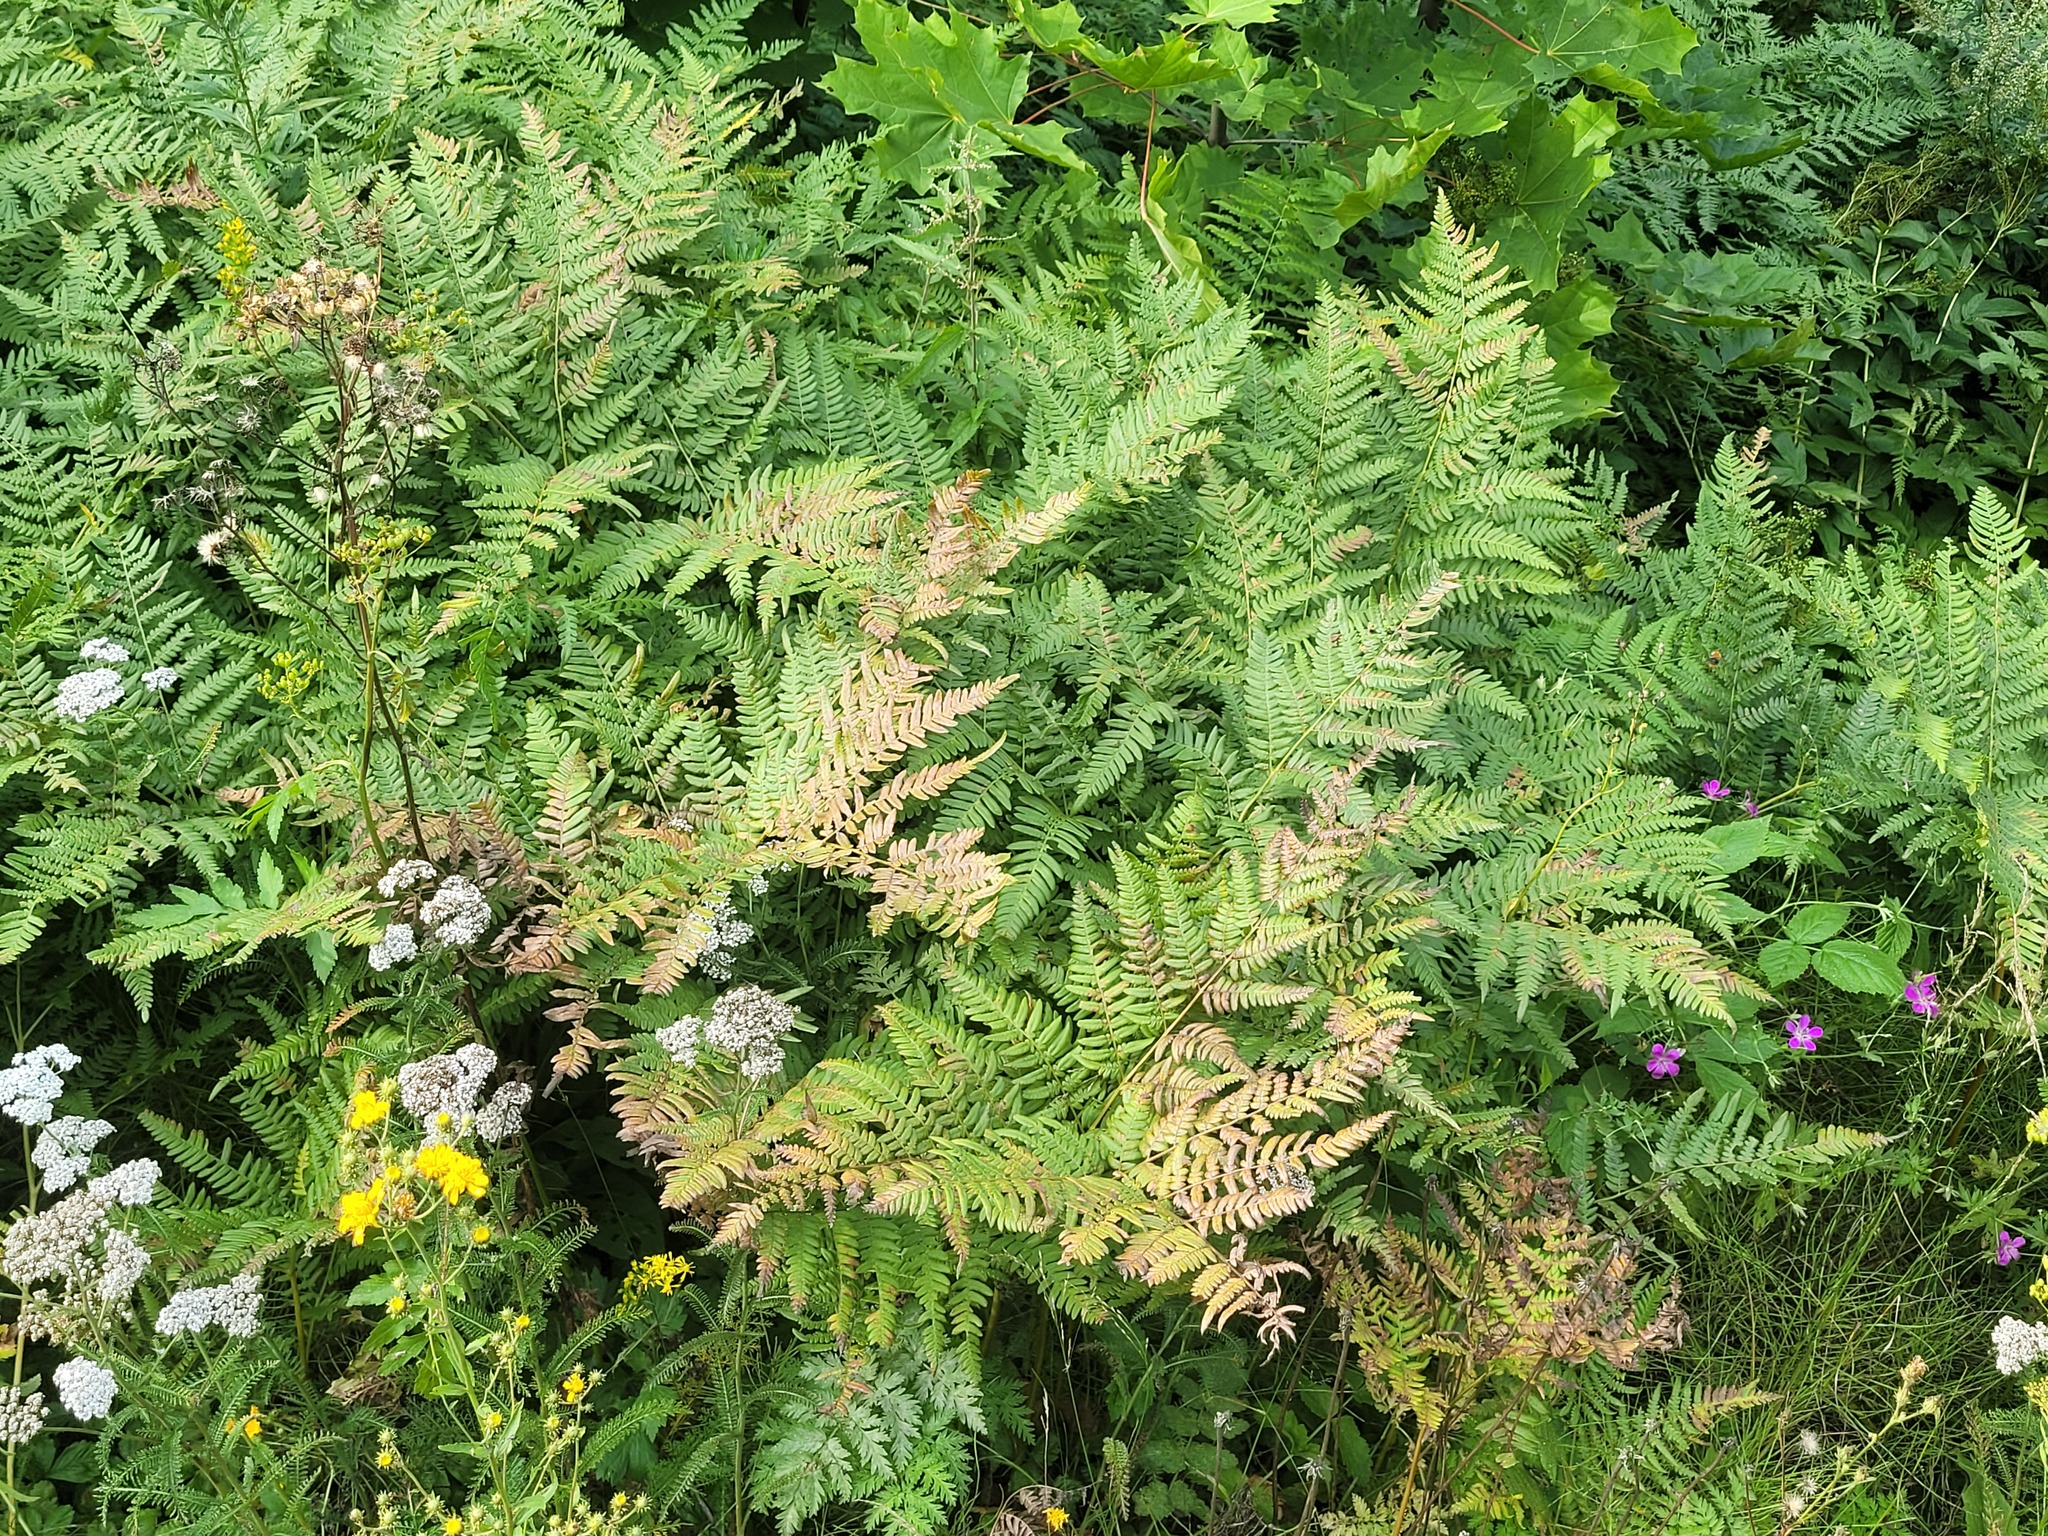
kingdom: Plantae
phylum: Tracheophyta
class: Polypodiopsida
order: Polypodiales
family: Dennstaedtiaceae
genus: Pteridium
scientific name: Pteridium aquilinum
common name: Bracken
